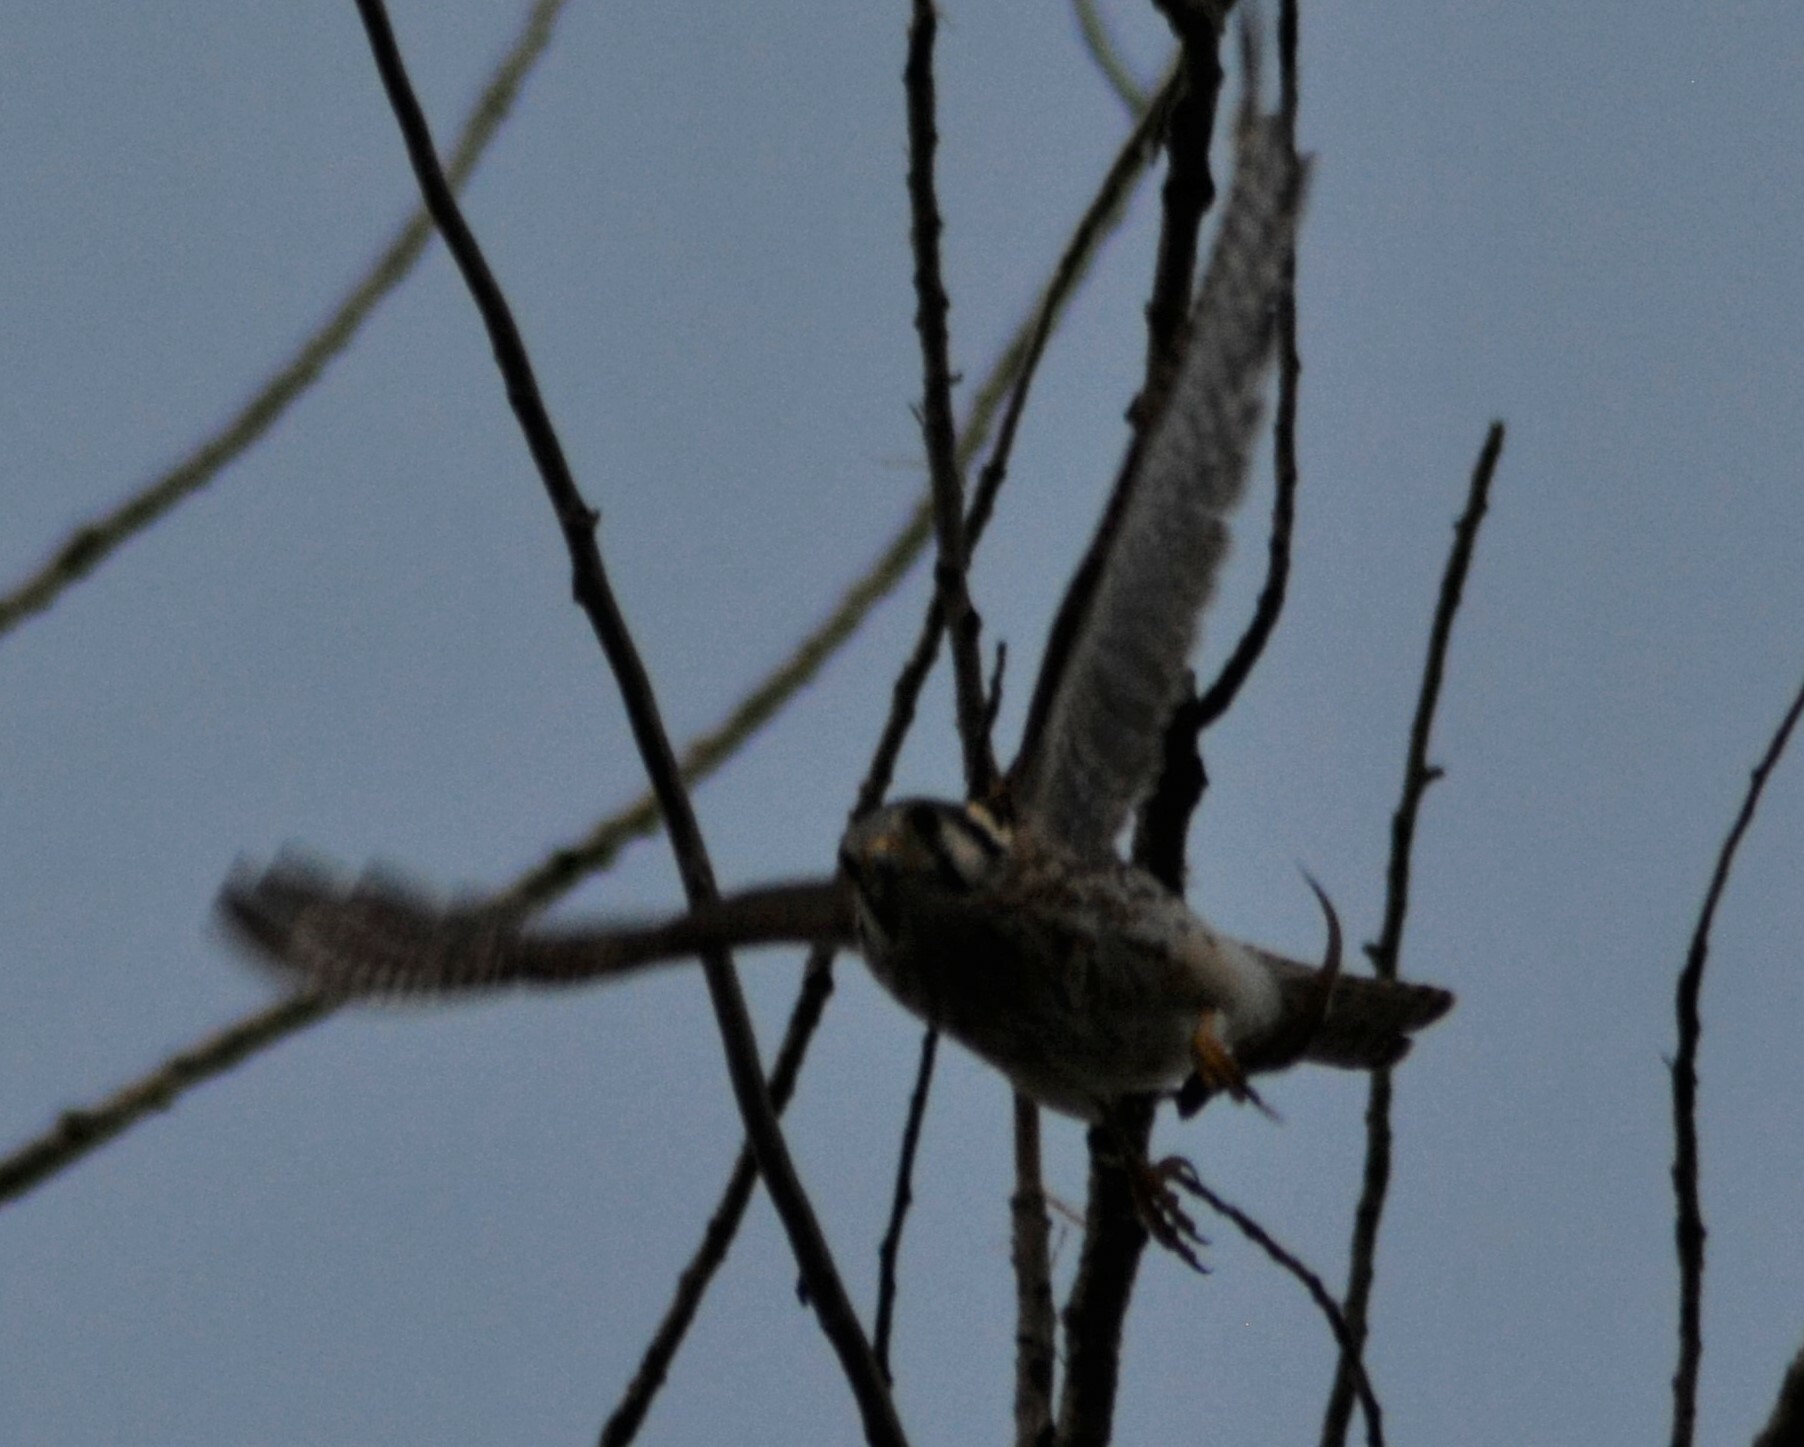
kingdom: Animalia
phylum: Chordata
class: Aves
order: Falconiformes
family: Falconidae
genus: Falco
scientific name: Falco sparverius
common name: American kestrel
